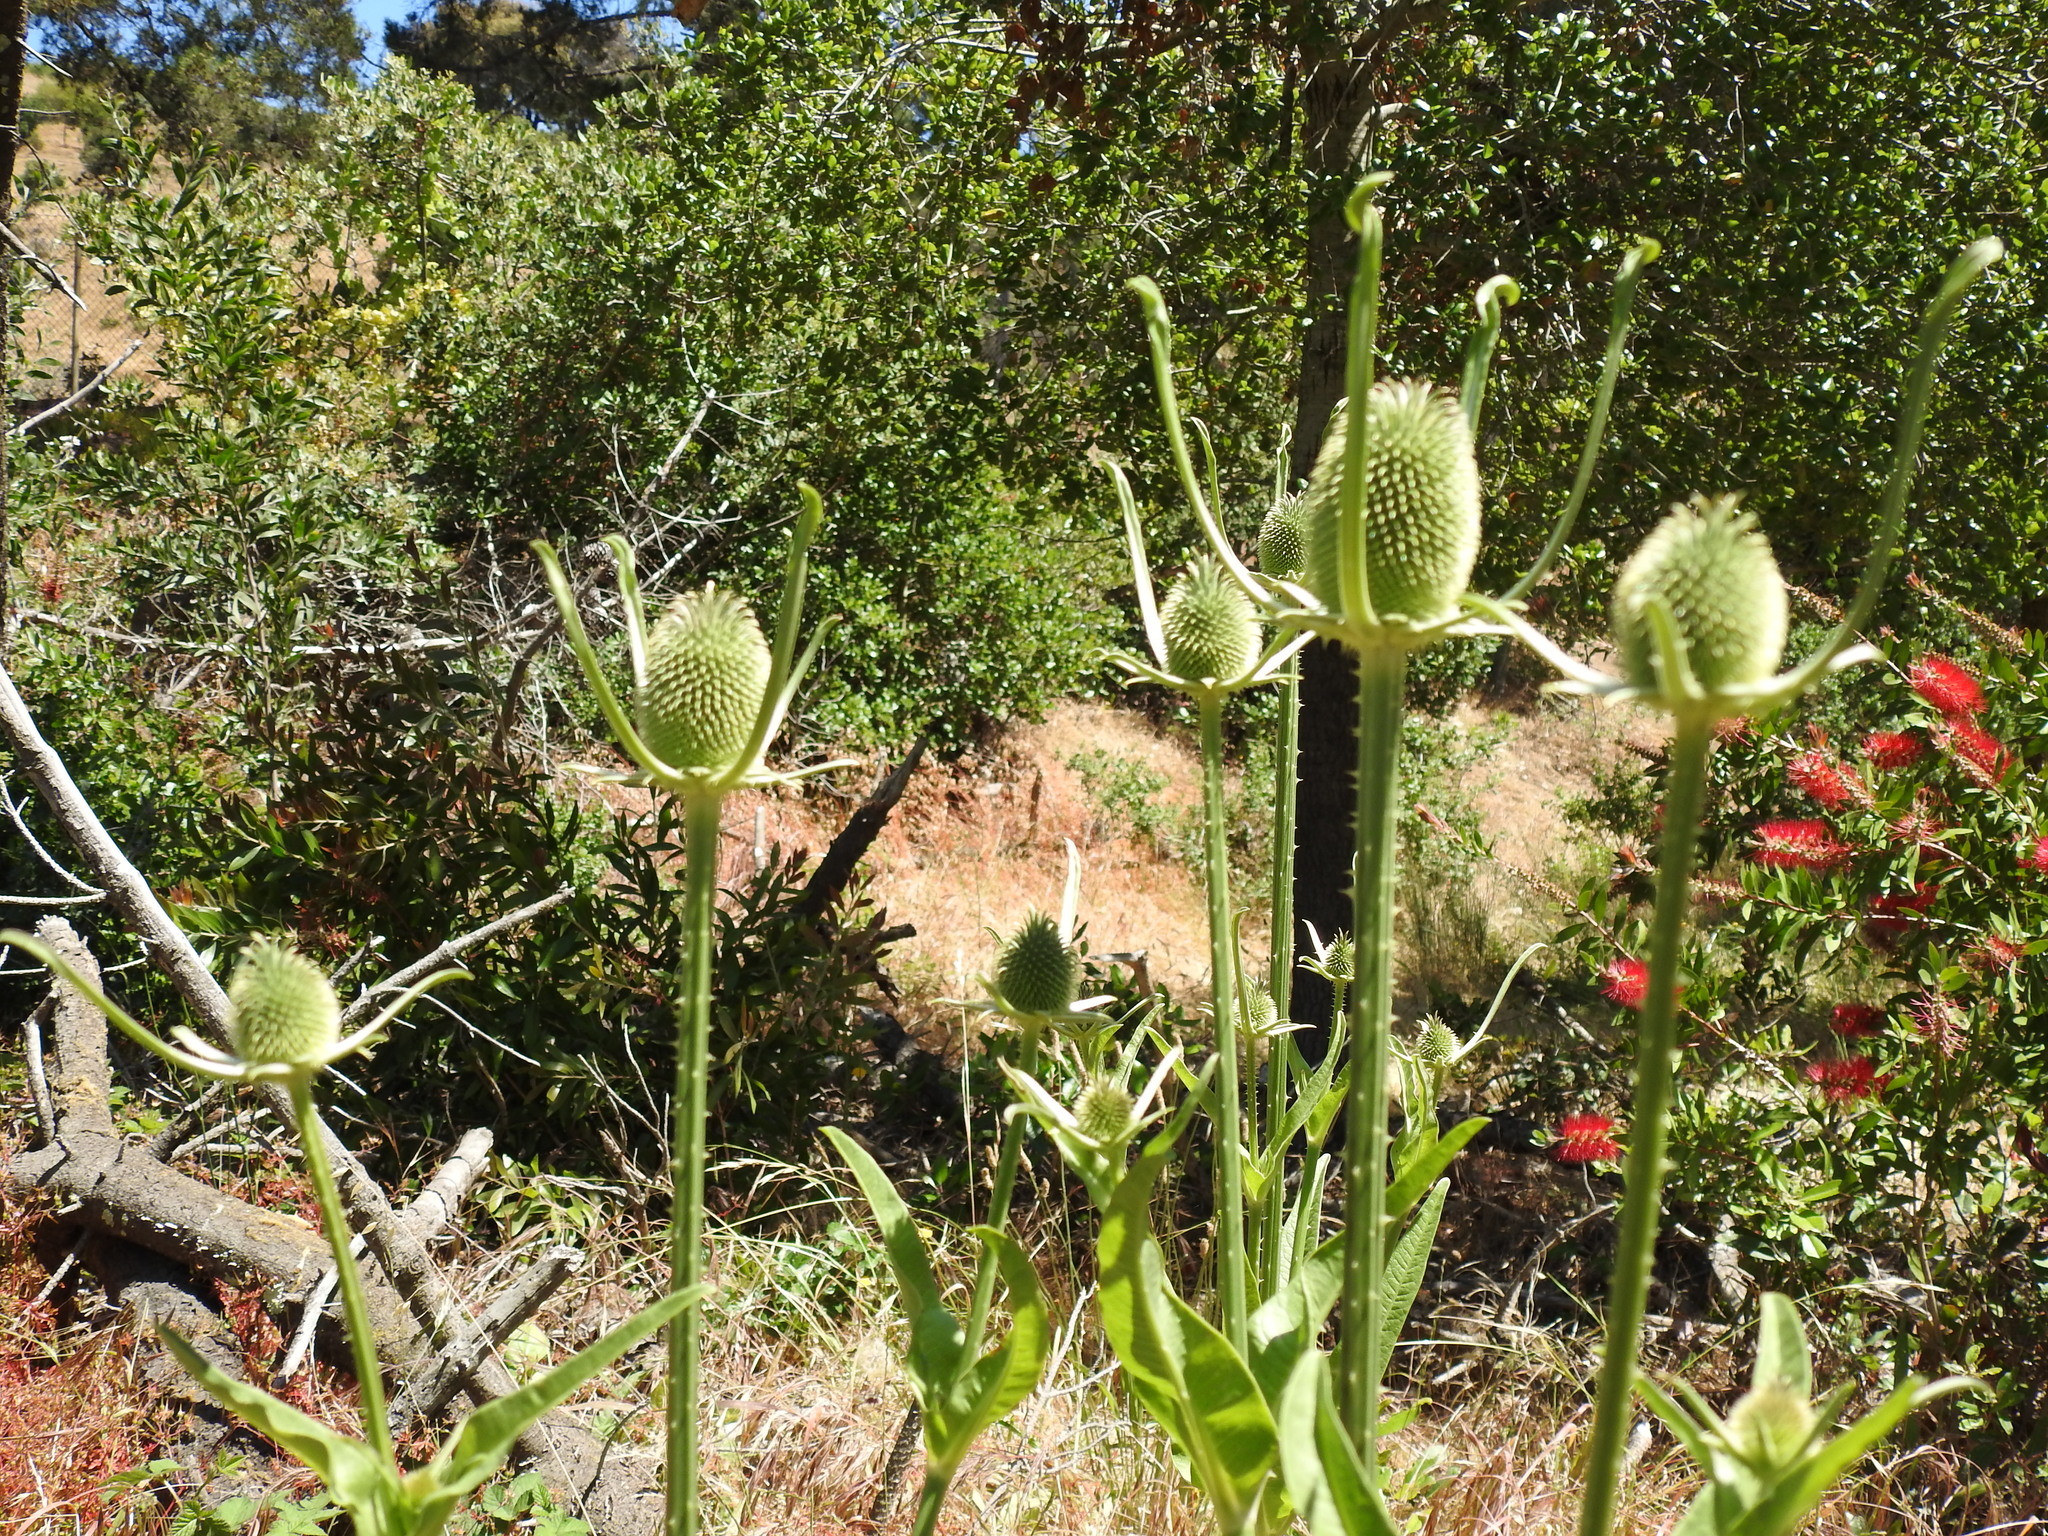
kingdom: Plantae
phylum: Tracheophyta
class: Magnoliopsida
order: Dipsacales
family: Caprifoliaceae
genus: Dipsacus
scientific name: Dipsacus sativus
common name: Fuller's teasel
